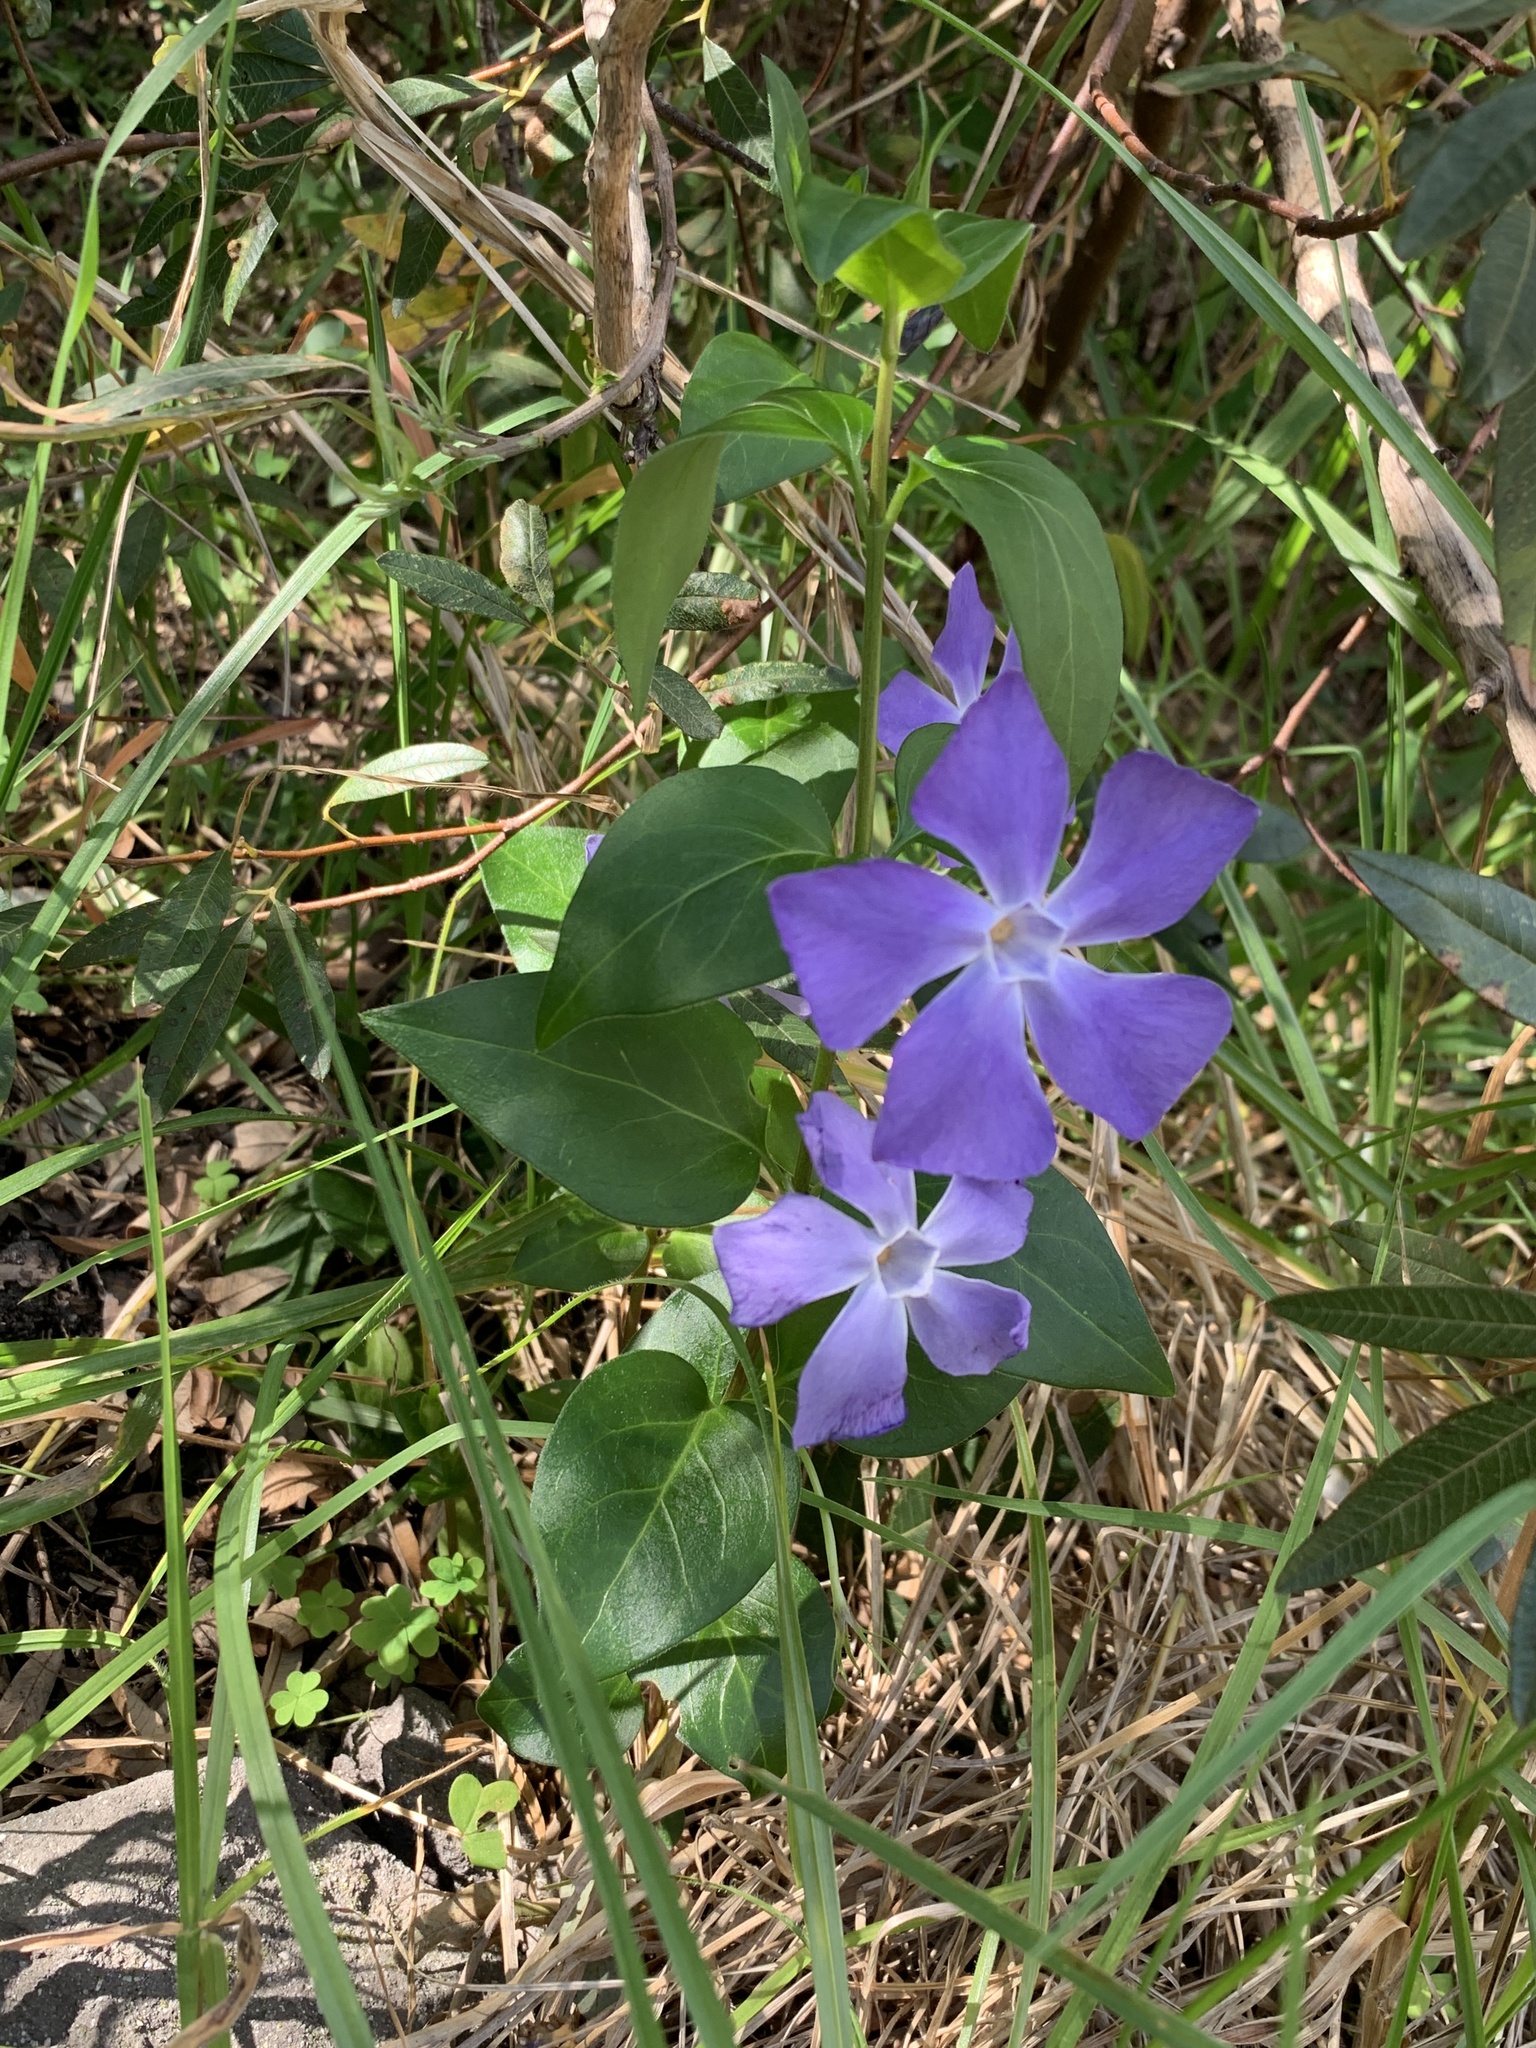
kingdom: Plantae
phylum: Tracheophyta
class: Magnoliopsida
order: Gentianales
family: Apocynaceae
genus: Vinca
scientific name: Vinca major
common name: Greater periwinkle
